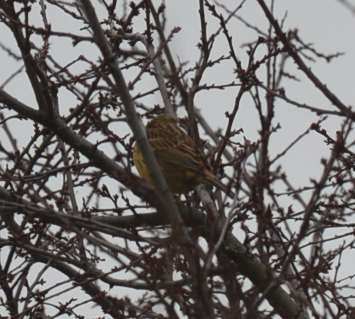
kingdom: Animalia
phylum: Chordata
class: Aves
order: Passeriformes
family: Emberizidae
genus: Emberiza
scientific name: Emberiza citrinella
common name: Yellowhammer
